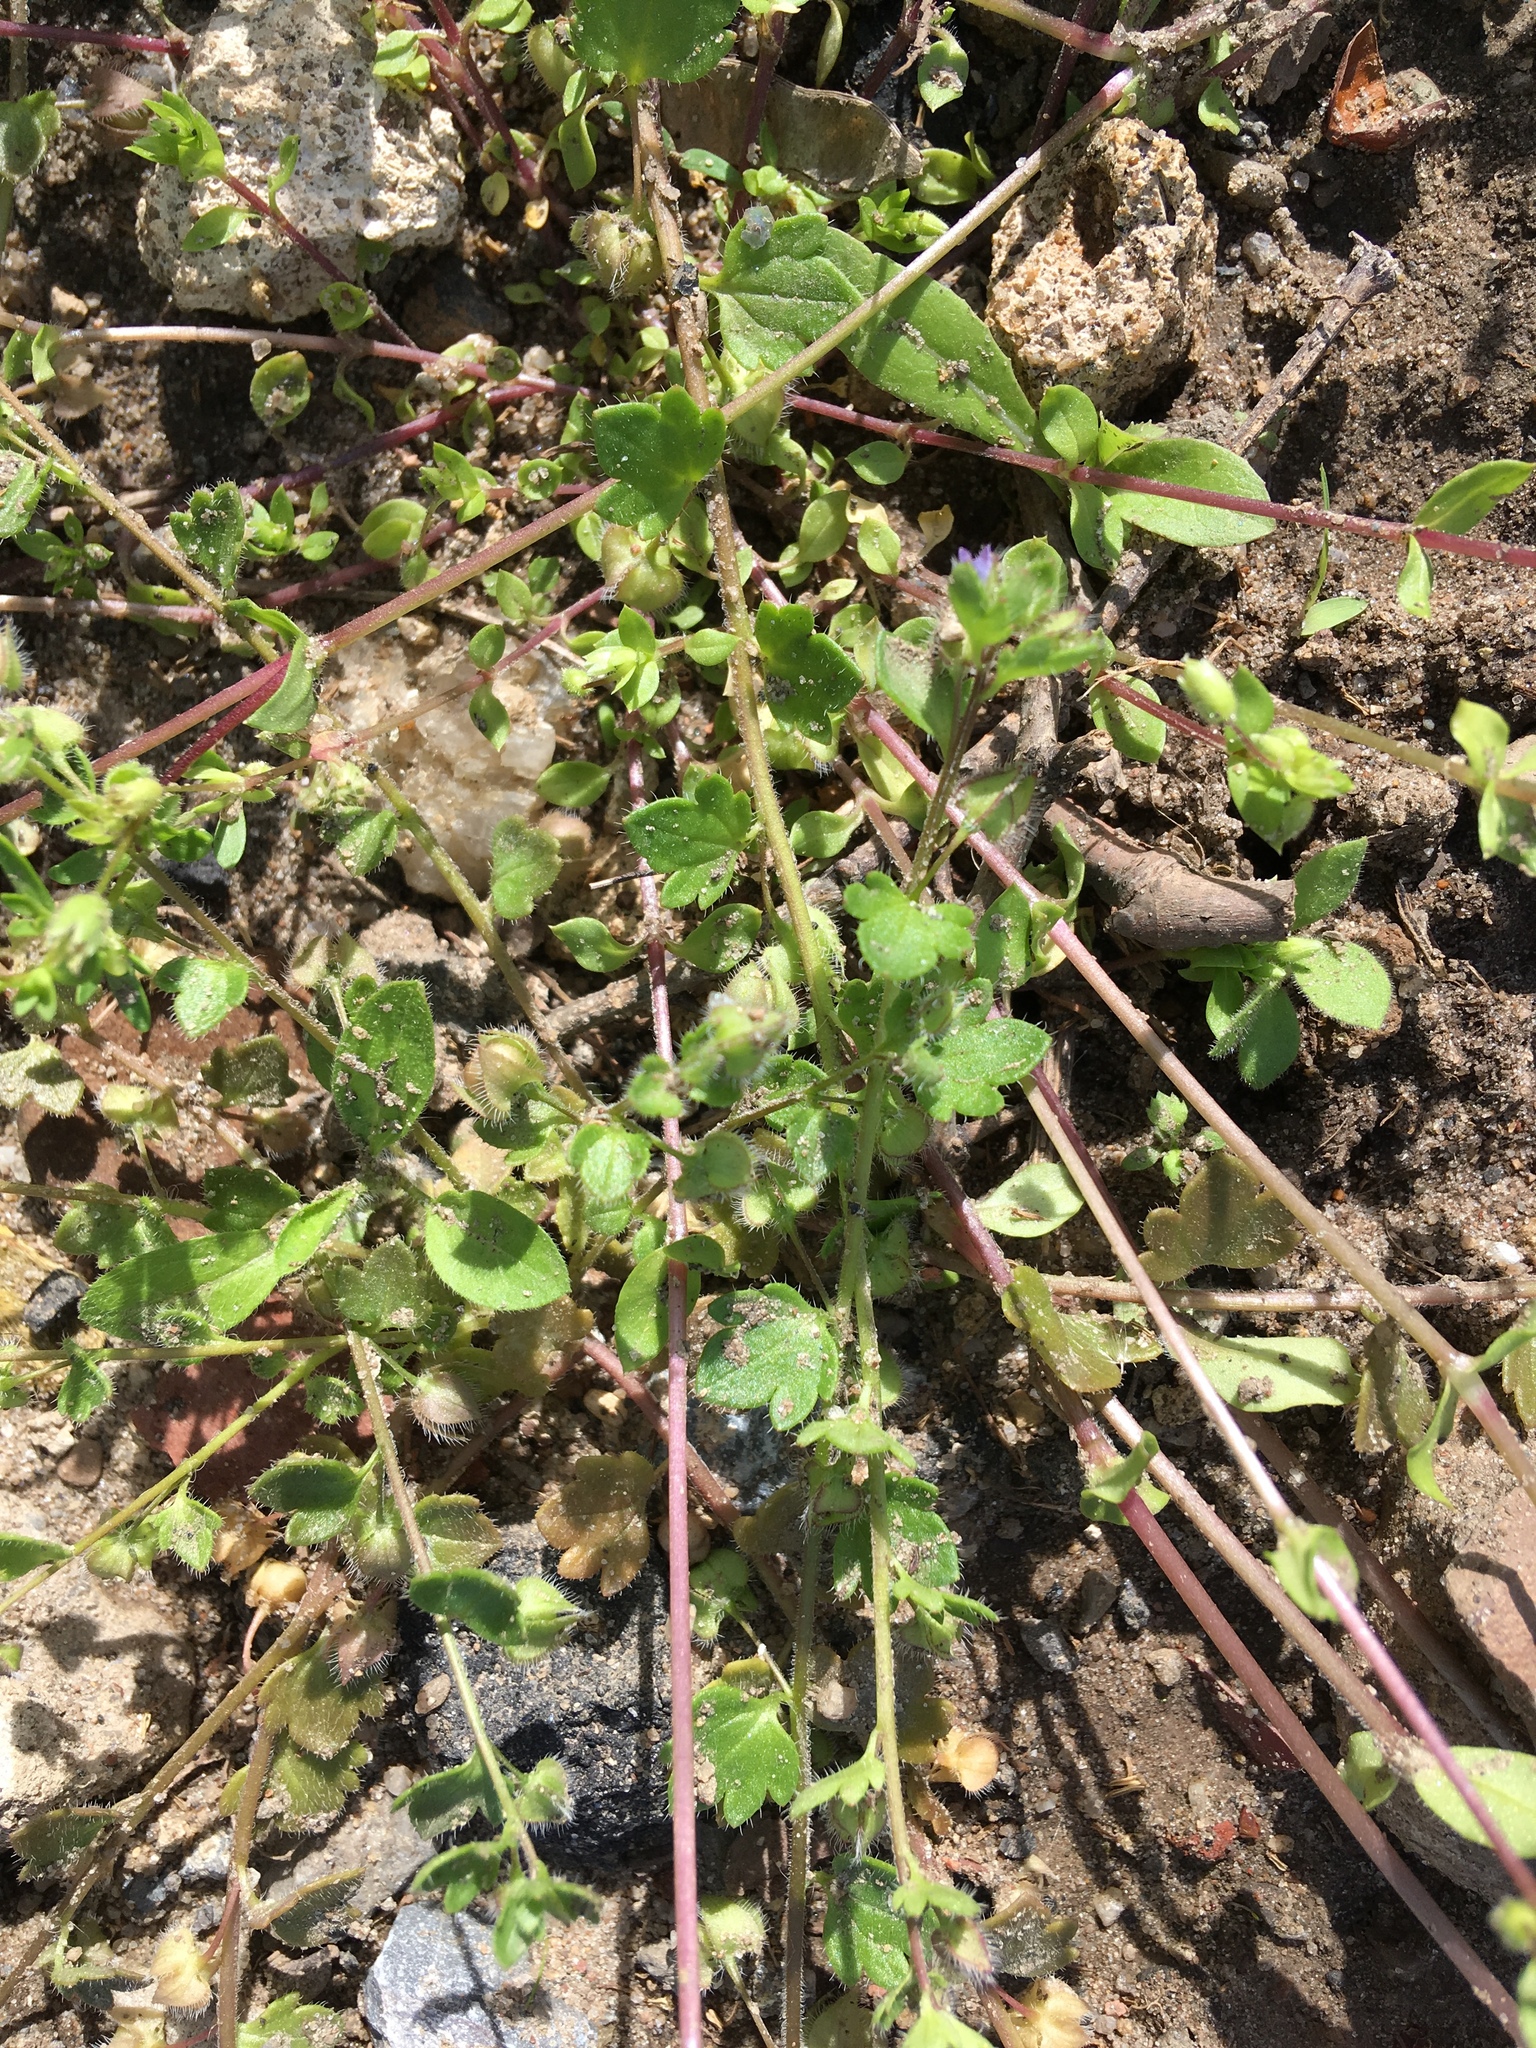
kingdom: Plantae
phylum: Tracheophyta
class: Magnoliopsida
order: Lamiales
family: Plantaginaceae
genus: Veronica
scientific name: Veronica hederifolia
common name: Ivy-leaved speedwell
